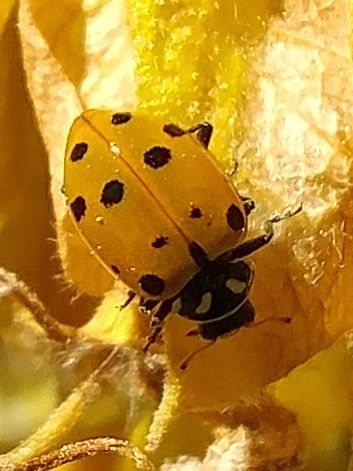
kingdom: Animalia
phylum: Arthropoda
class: Insecta
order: Coleoptera
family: Coccinellidae
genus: Hippodamia
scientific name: Hippodamia convergens
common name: Convergent lady beetle
